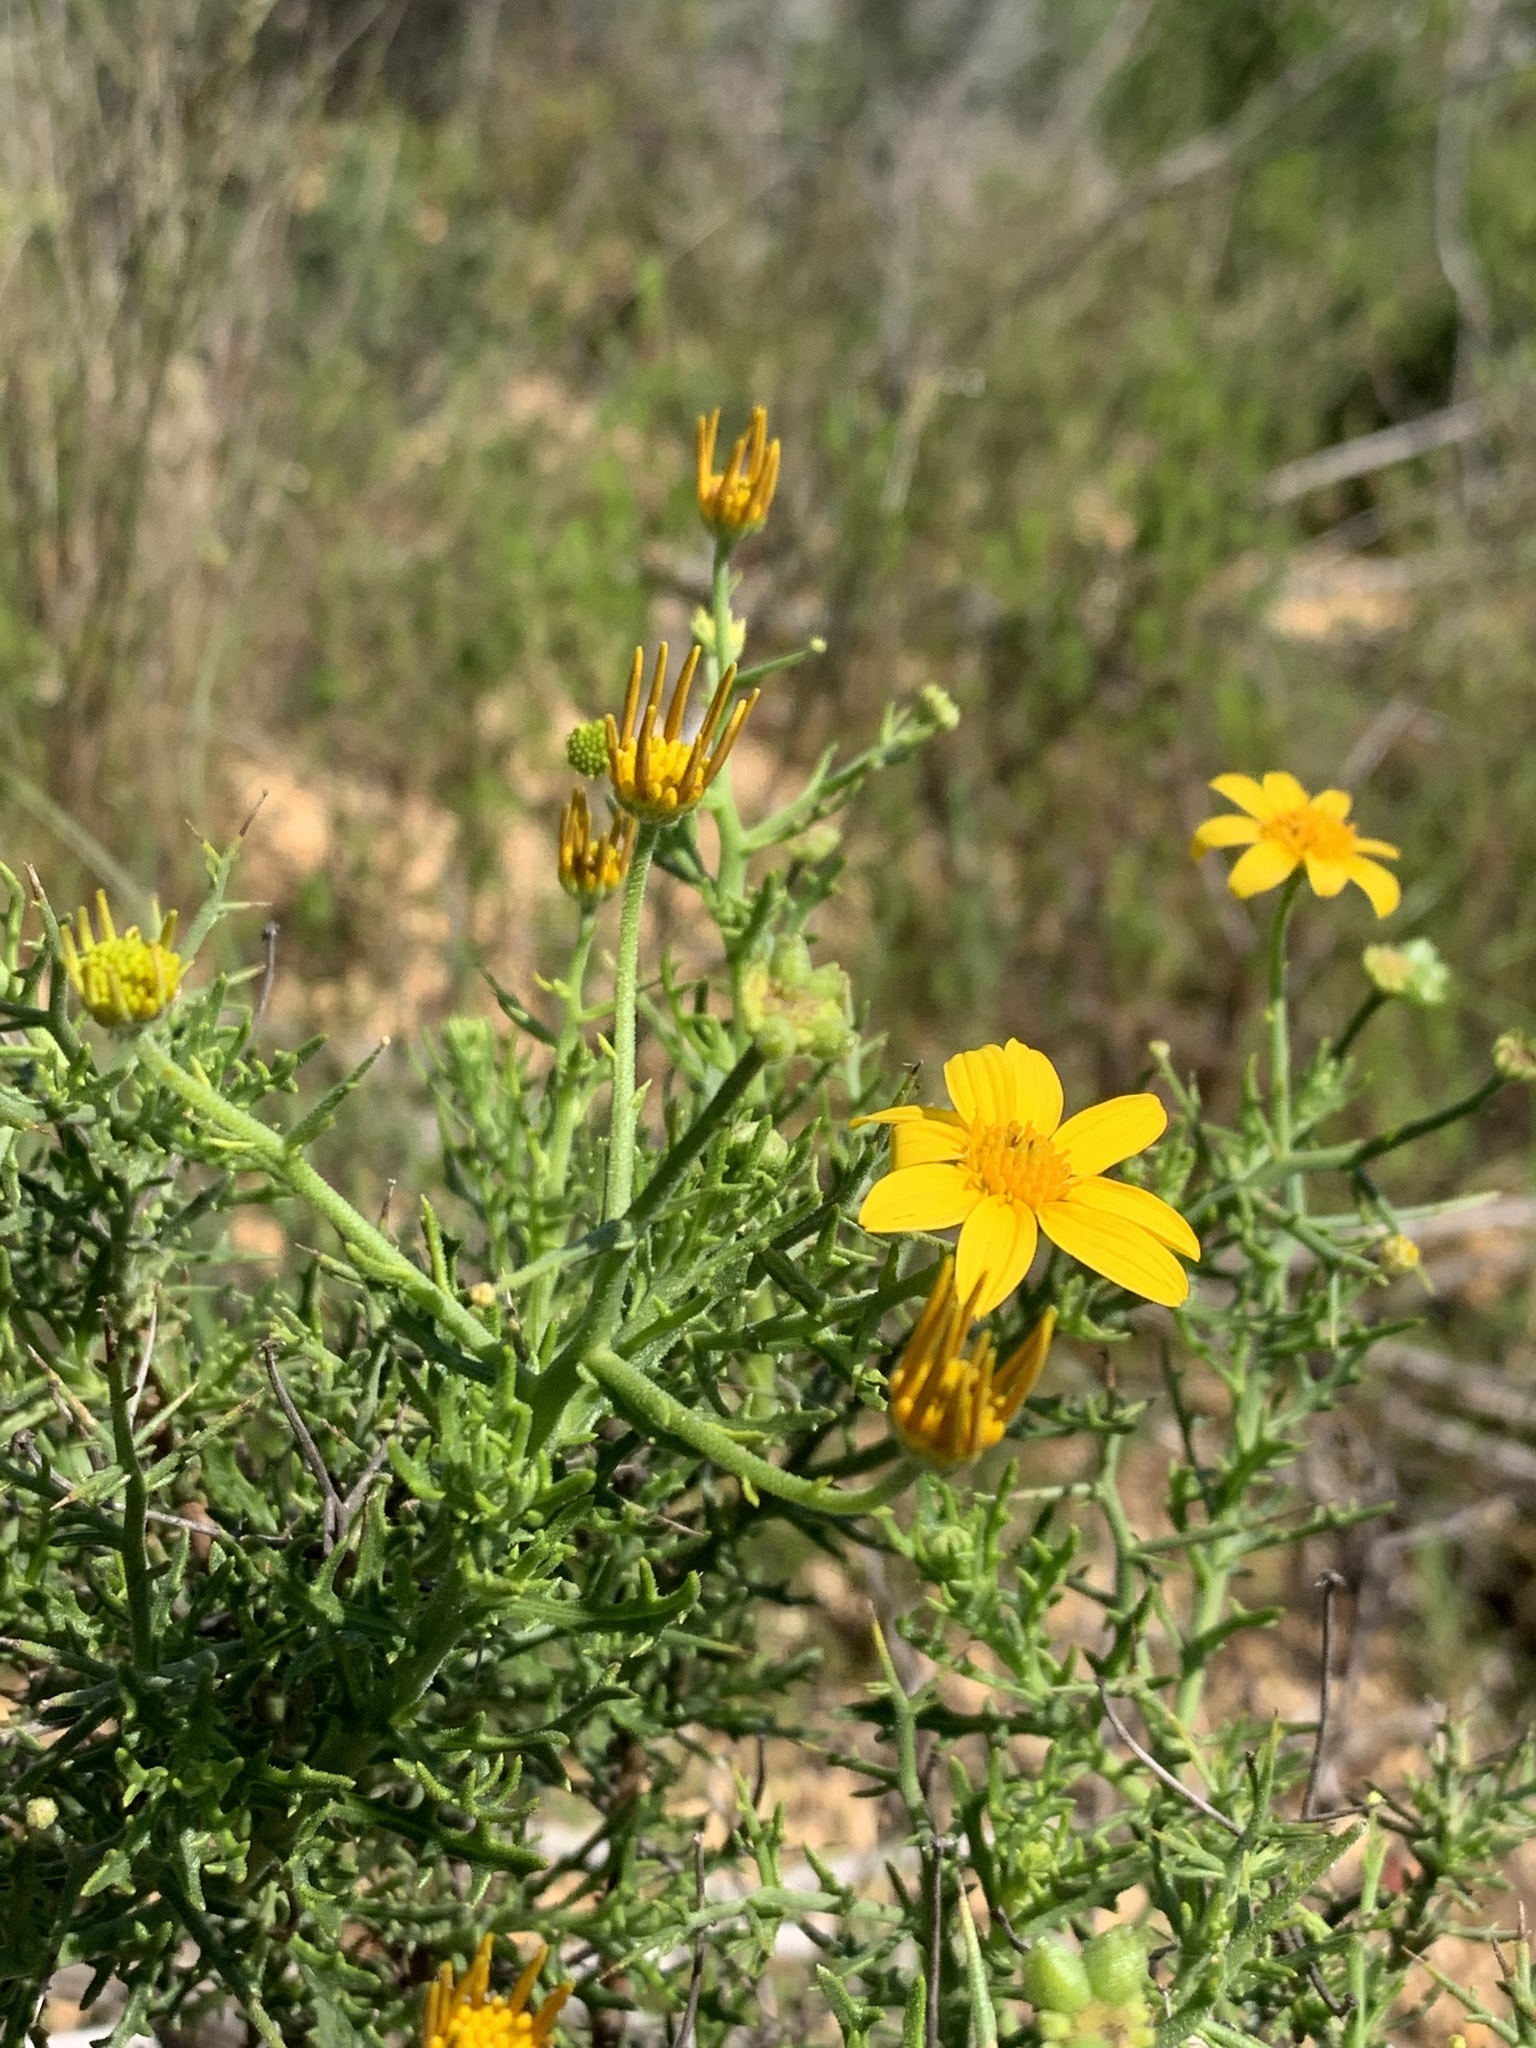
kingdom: Plantae
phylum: Tracheophyta
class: Magnoliopsida
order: Asterales
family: Asteraceae
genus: Osteospermum
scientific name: Osteospermum spinosum
